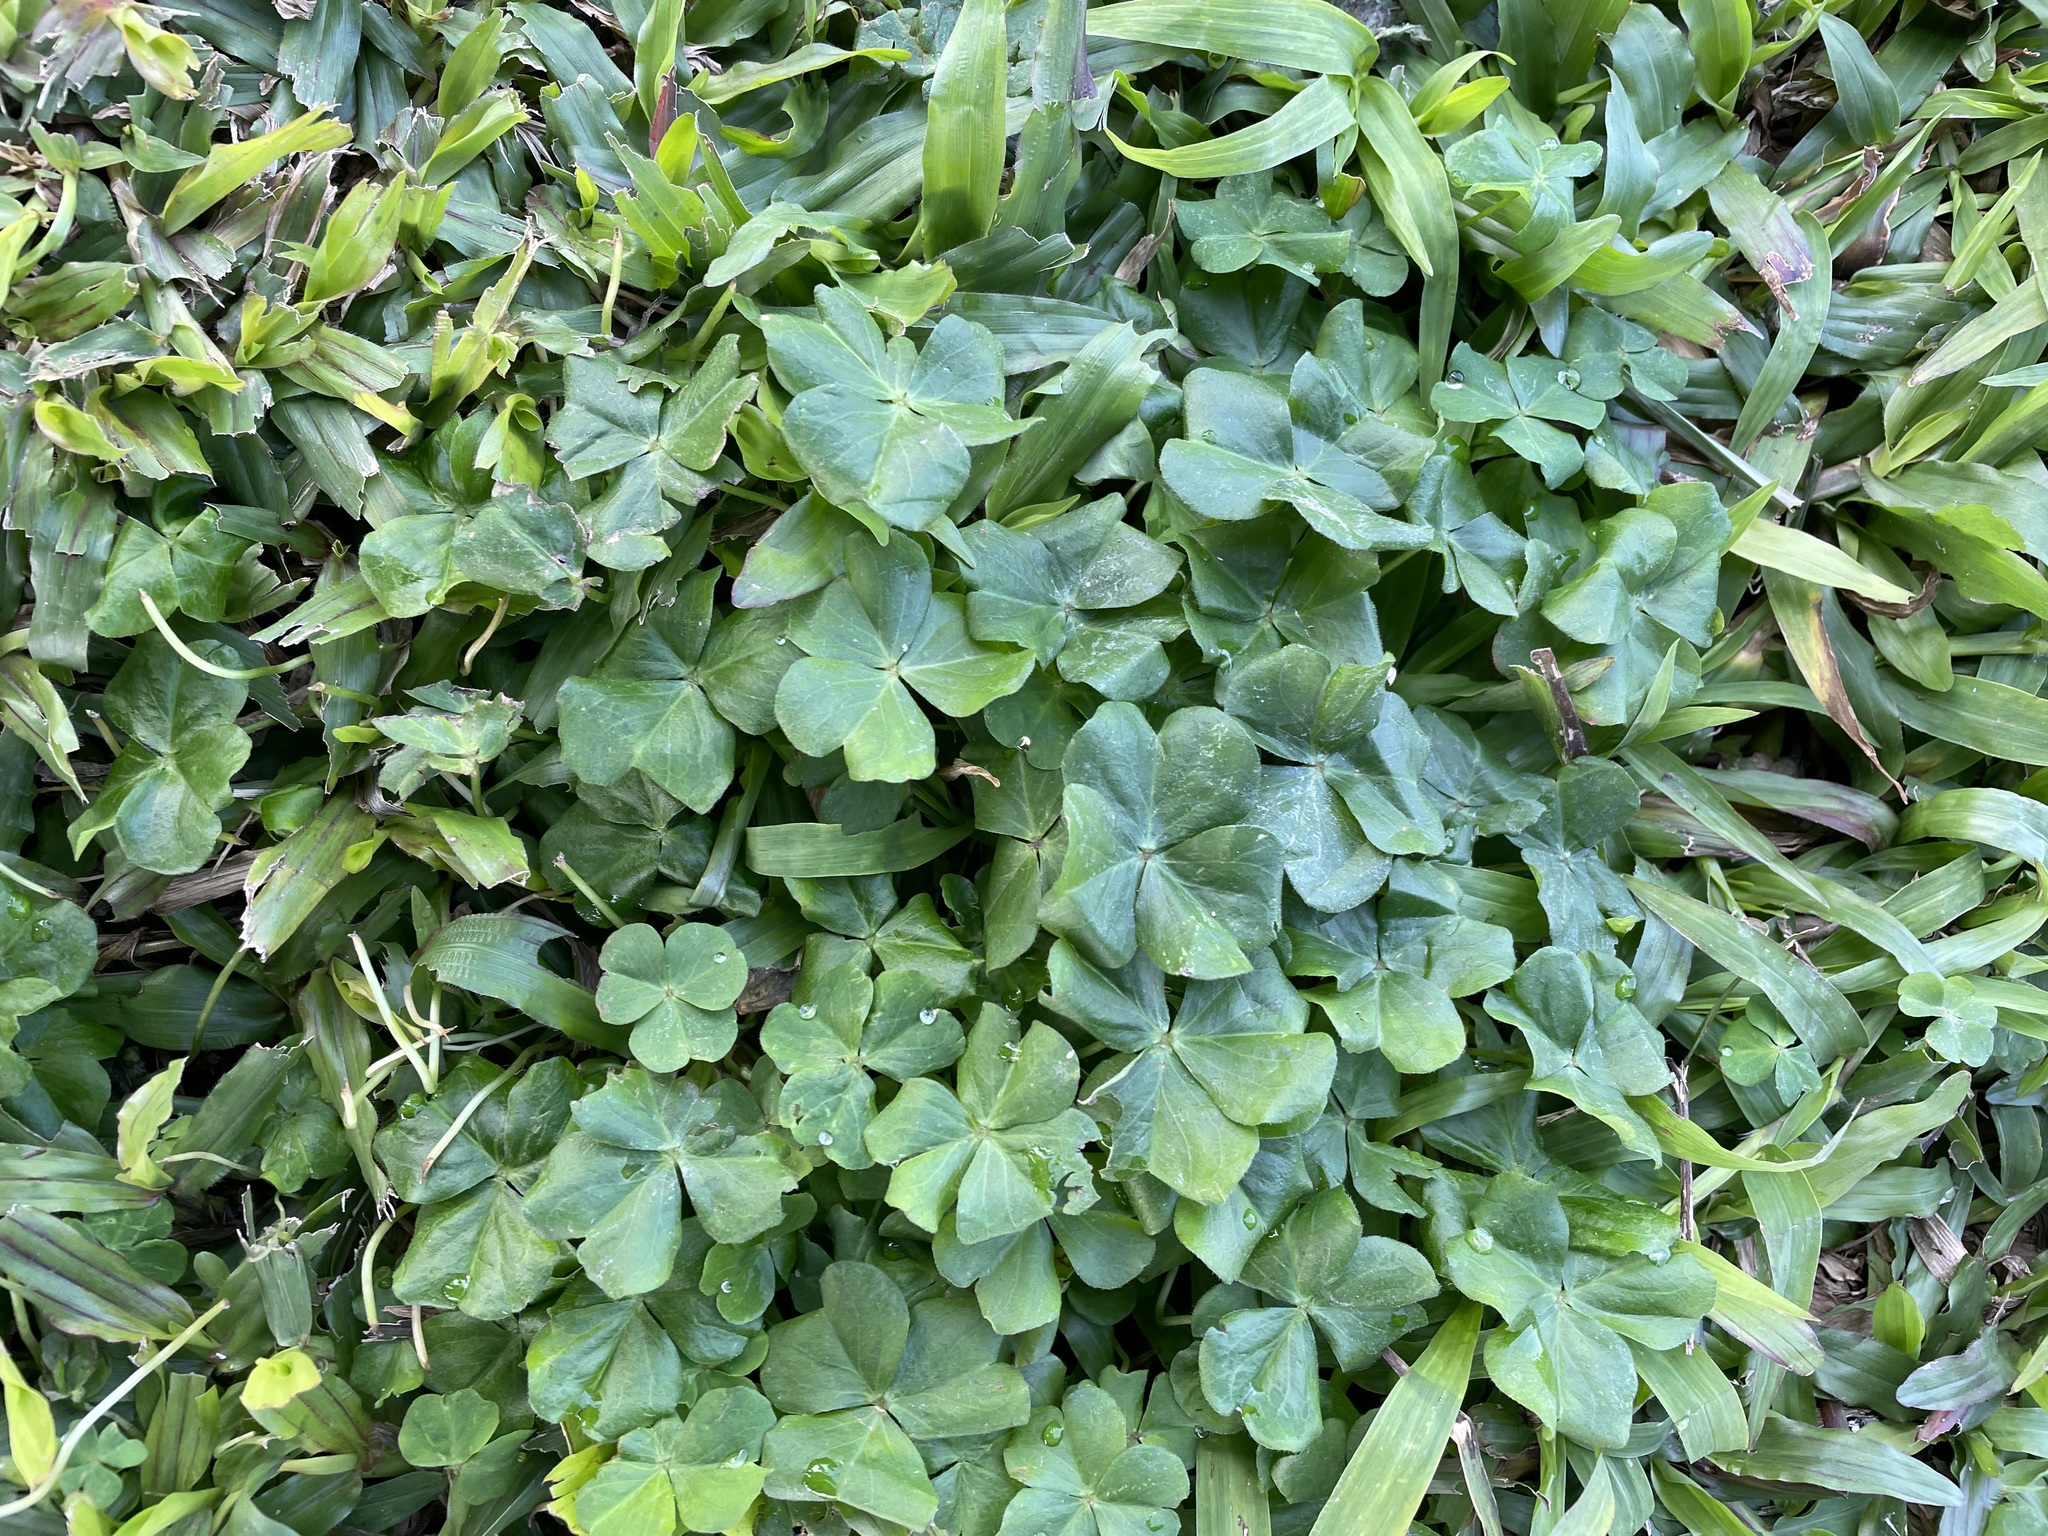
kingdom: Plantae
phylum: Tracheophyta
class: Magnoliopsida
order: Oxalidales
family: Oxalidaceae
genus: Oxalis
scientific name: Oxalis debilis
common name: Large-flowered pink-sorrel
